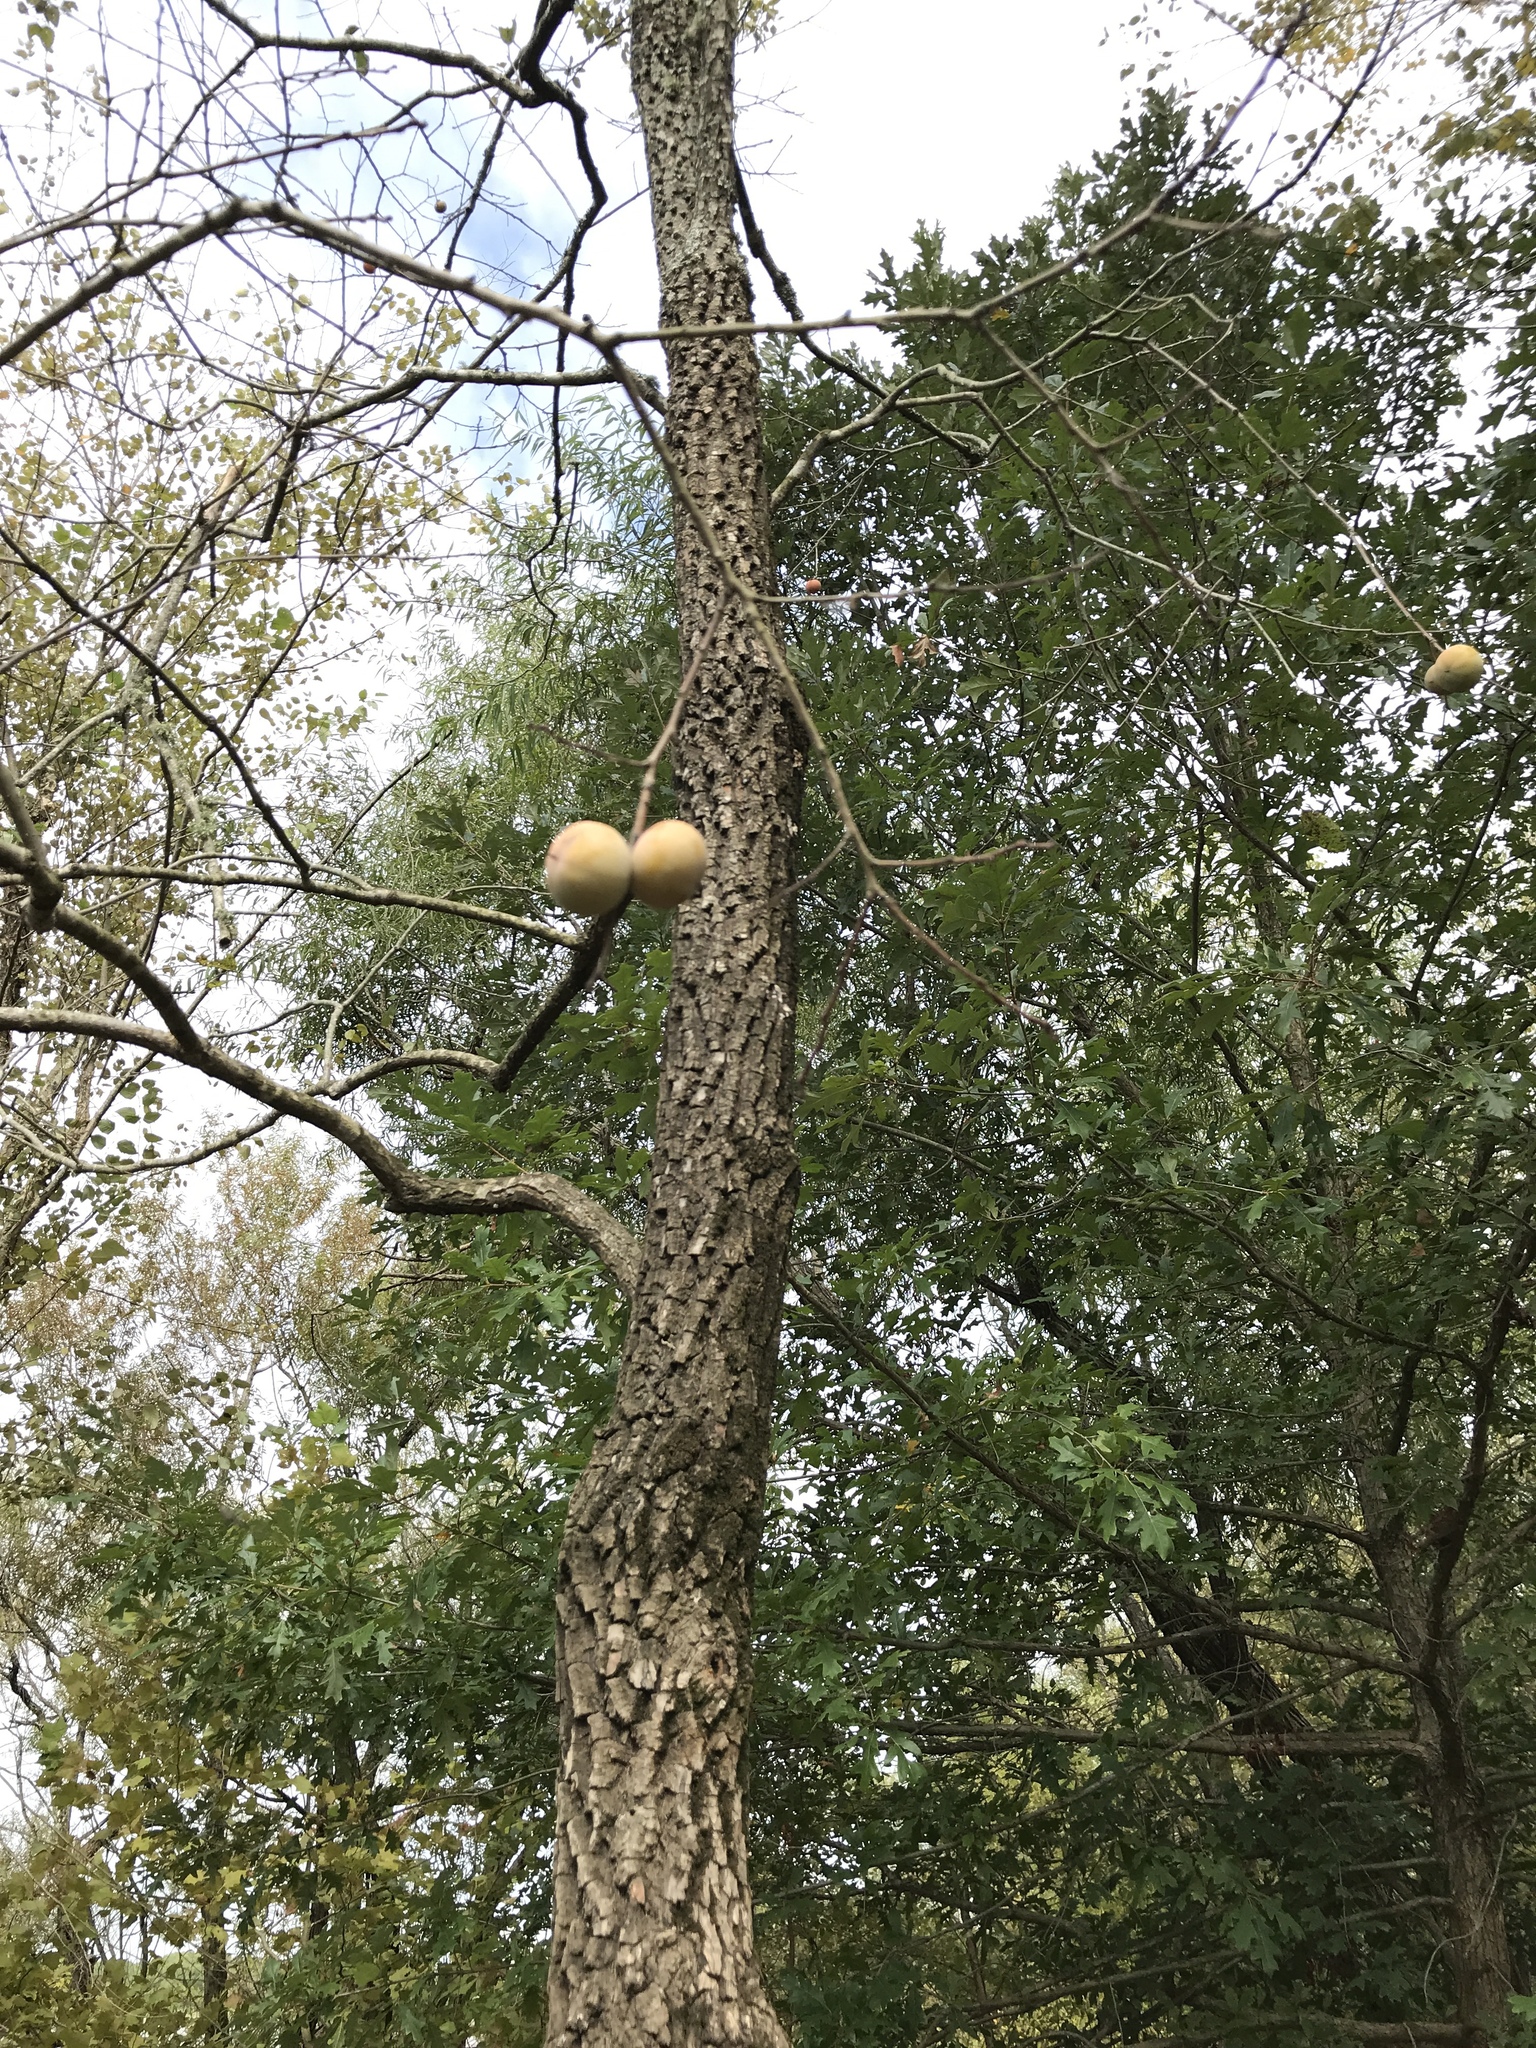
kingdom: Plantae
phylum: Tracheophyta
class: Magnoliopsida
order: Ericales
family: Ebenaceae
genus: Diospyros
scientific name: Diospyros virginiana
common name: Persimmon
